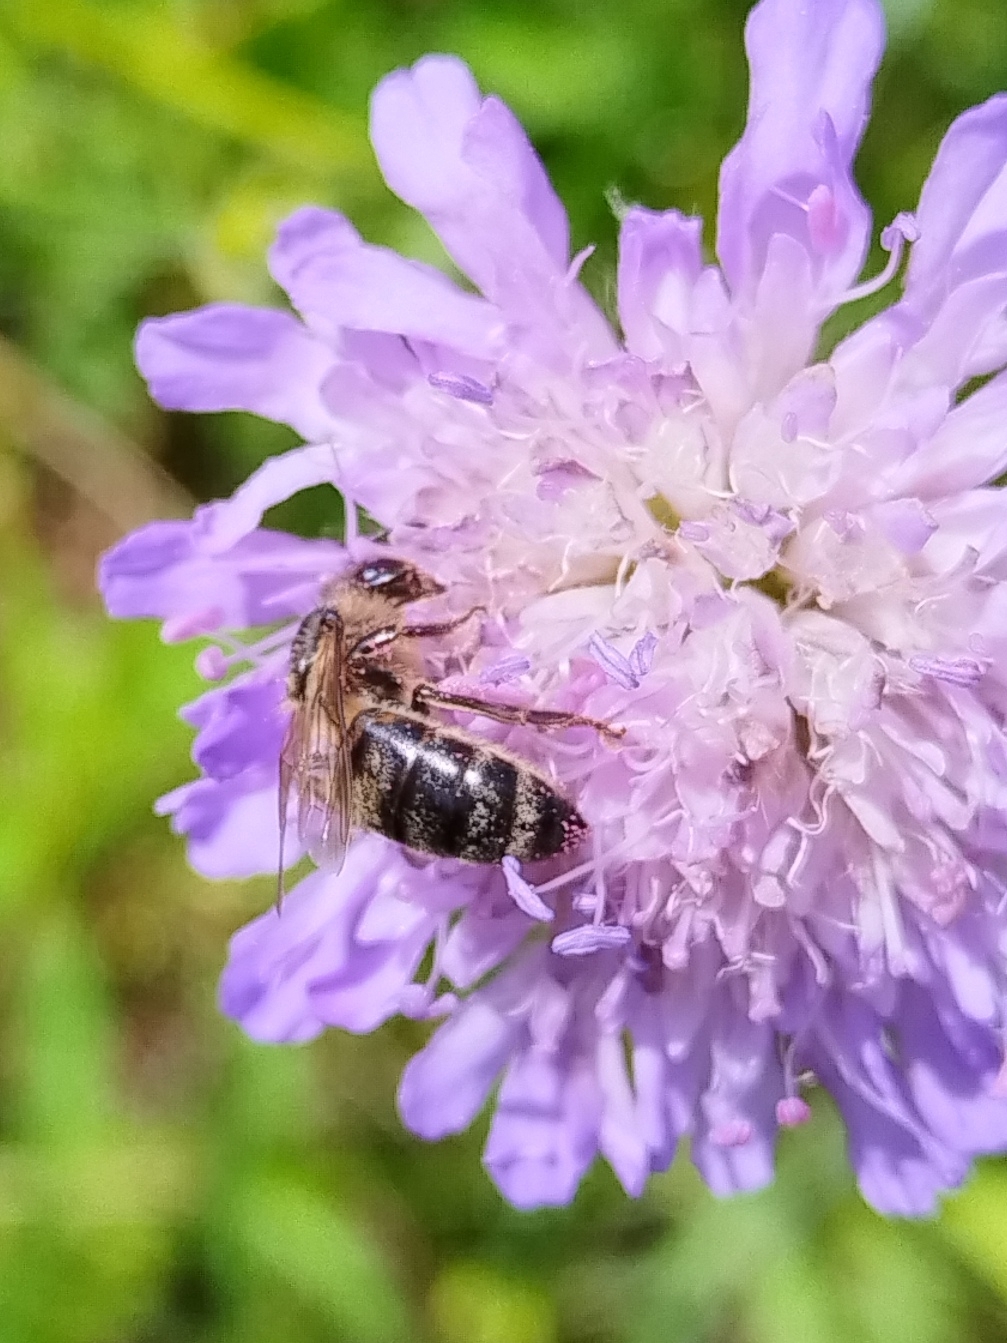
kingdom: Animalia
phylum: Arthropoda
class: Insecta
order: Hymenoptera
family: Apidae
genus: Apis
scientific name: Apis mellifera
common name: Honey bee
